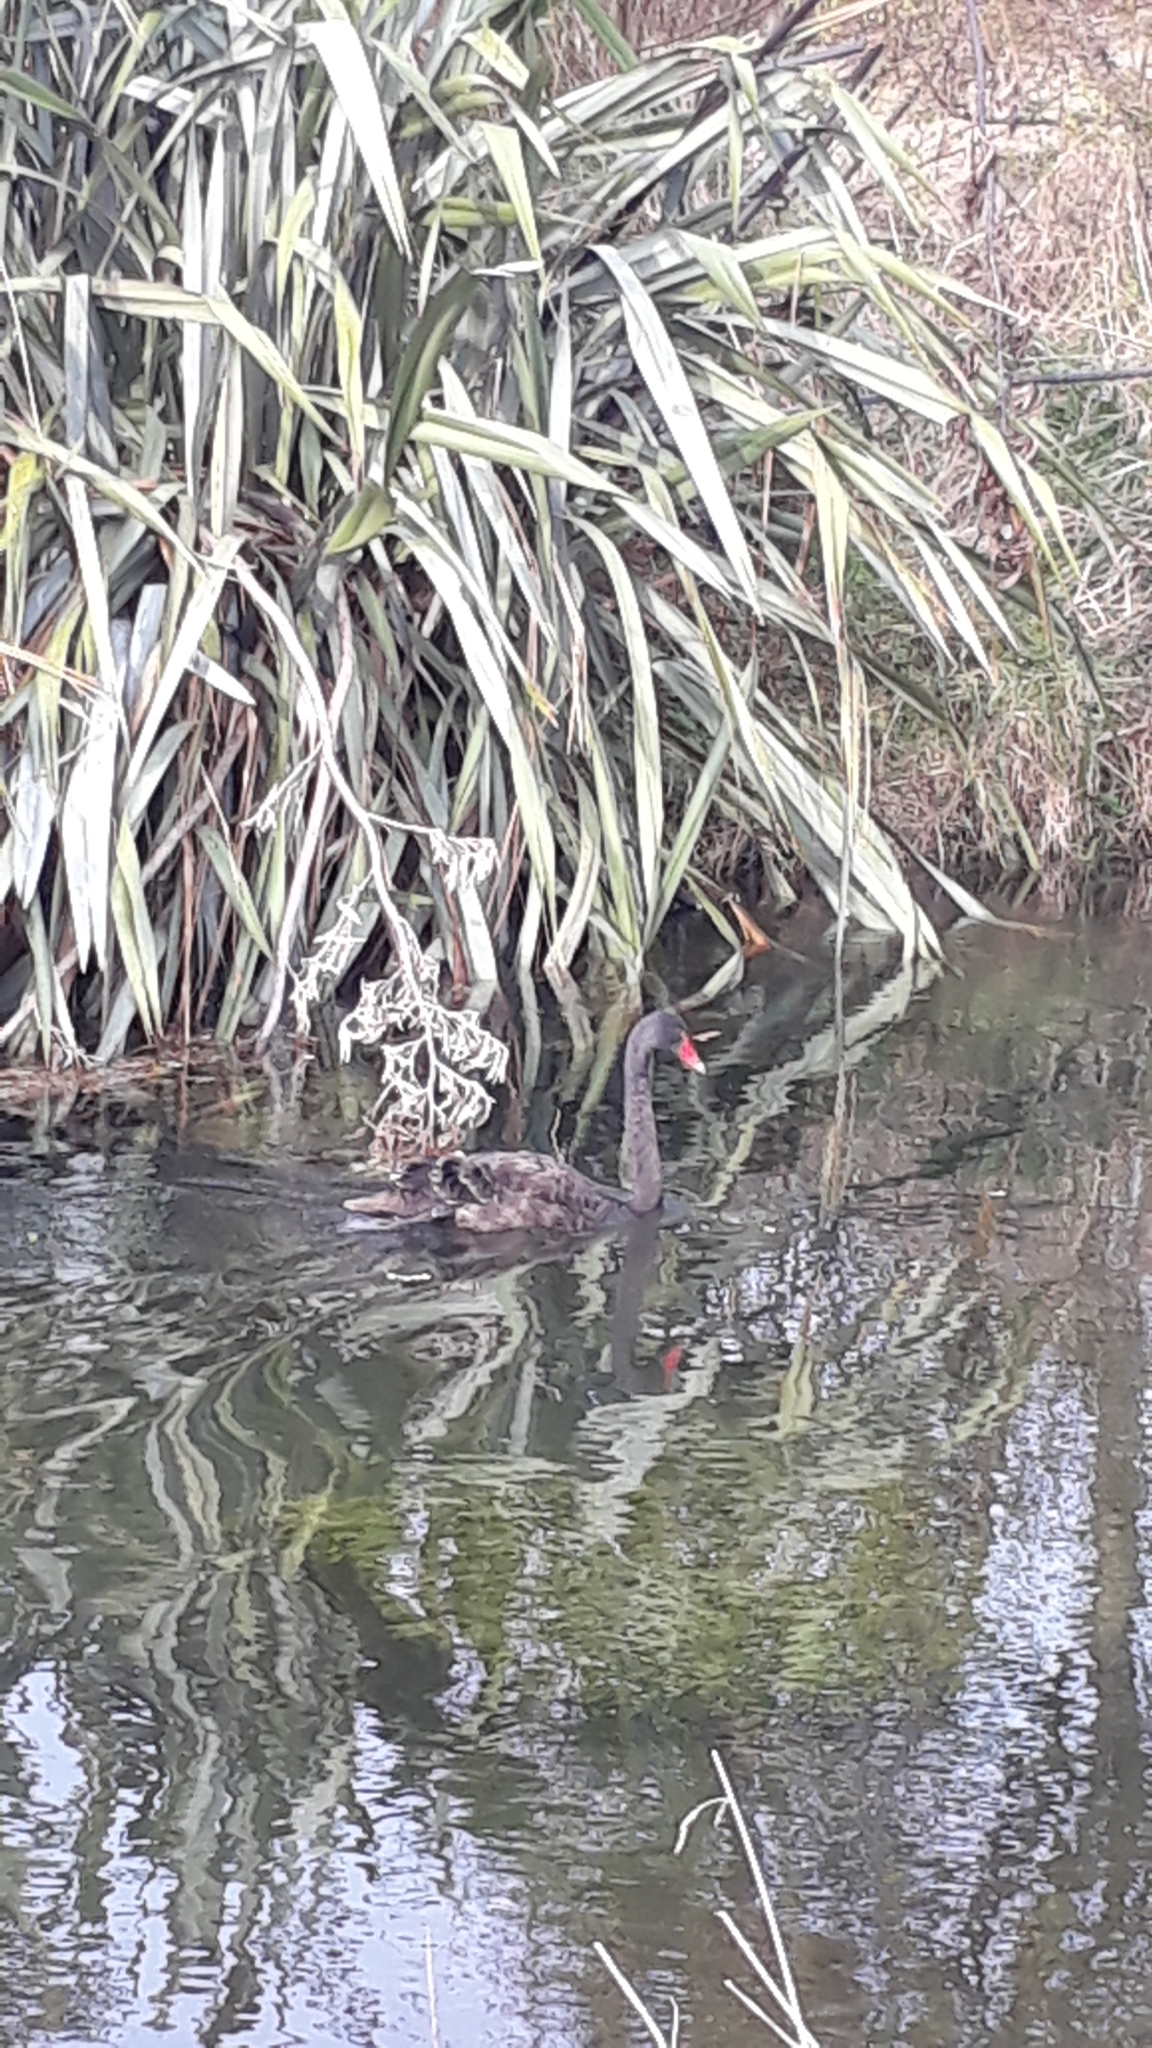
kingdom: Animalia
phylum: Chordata
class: Aves
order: Anseriformes
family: Anatidae
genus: Cygnus
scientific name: Cygnus atratus
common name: Black swan
